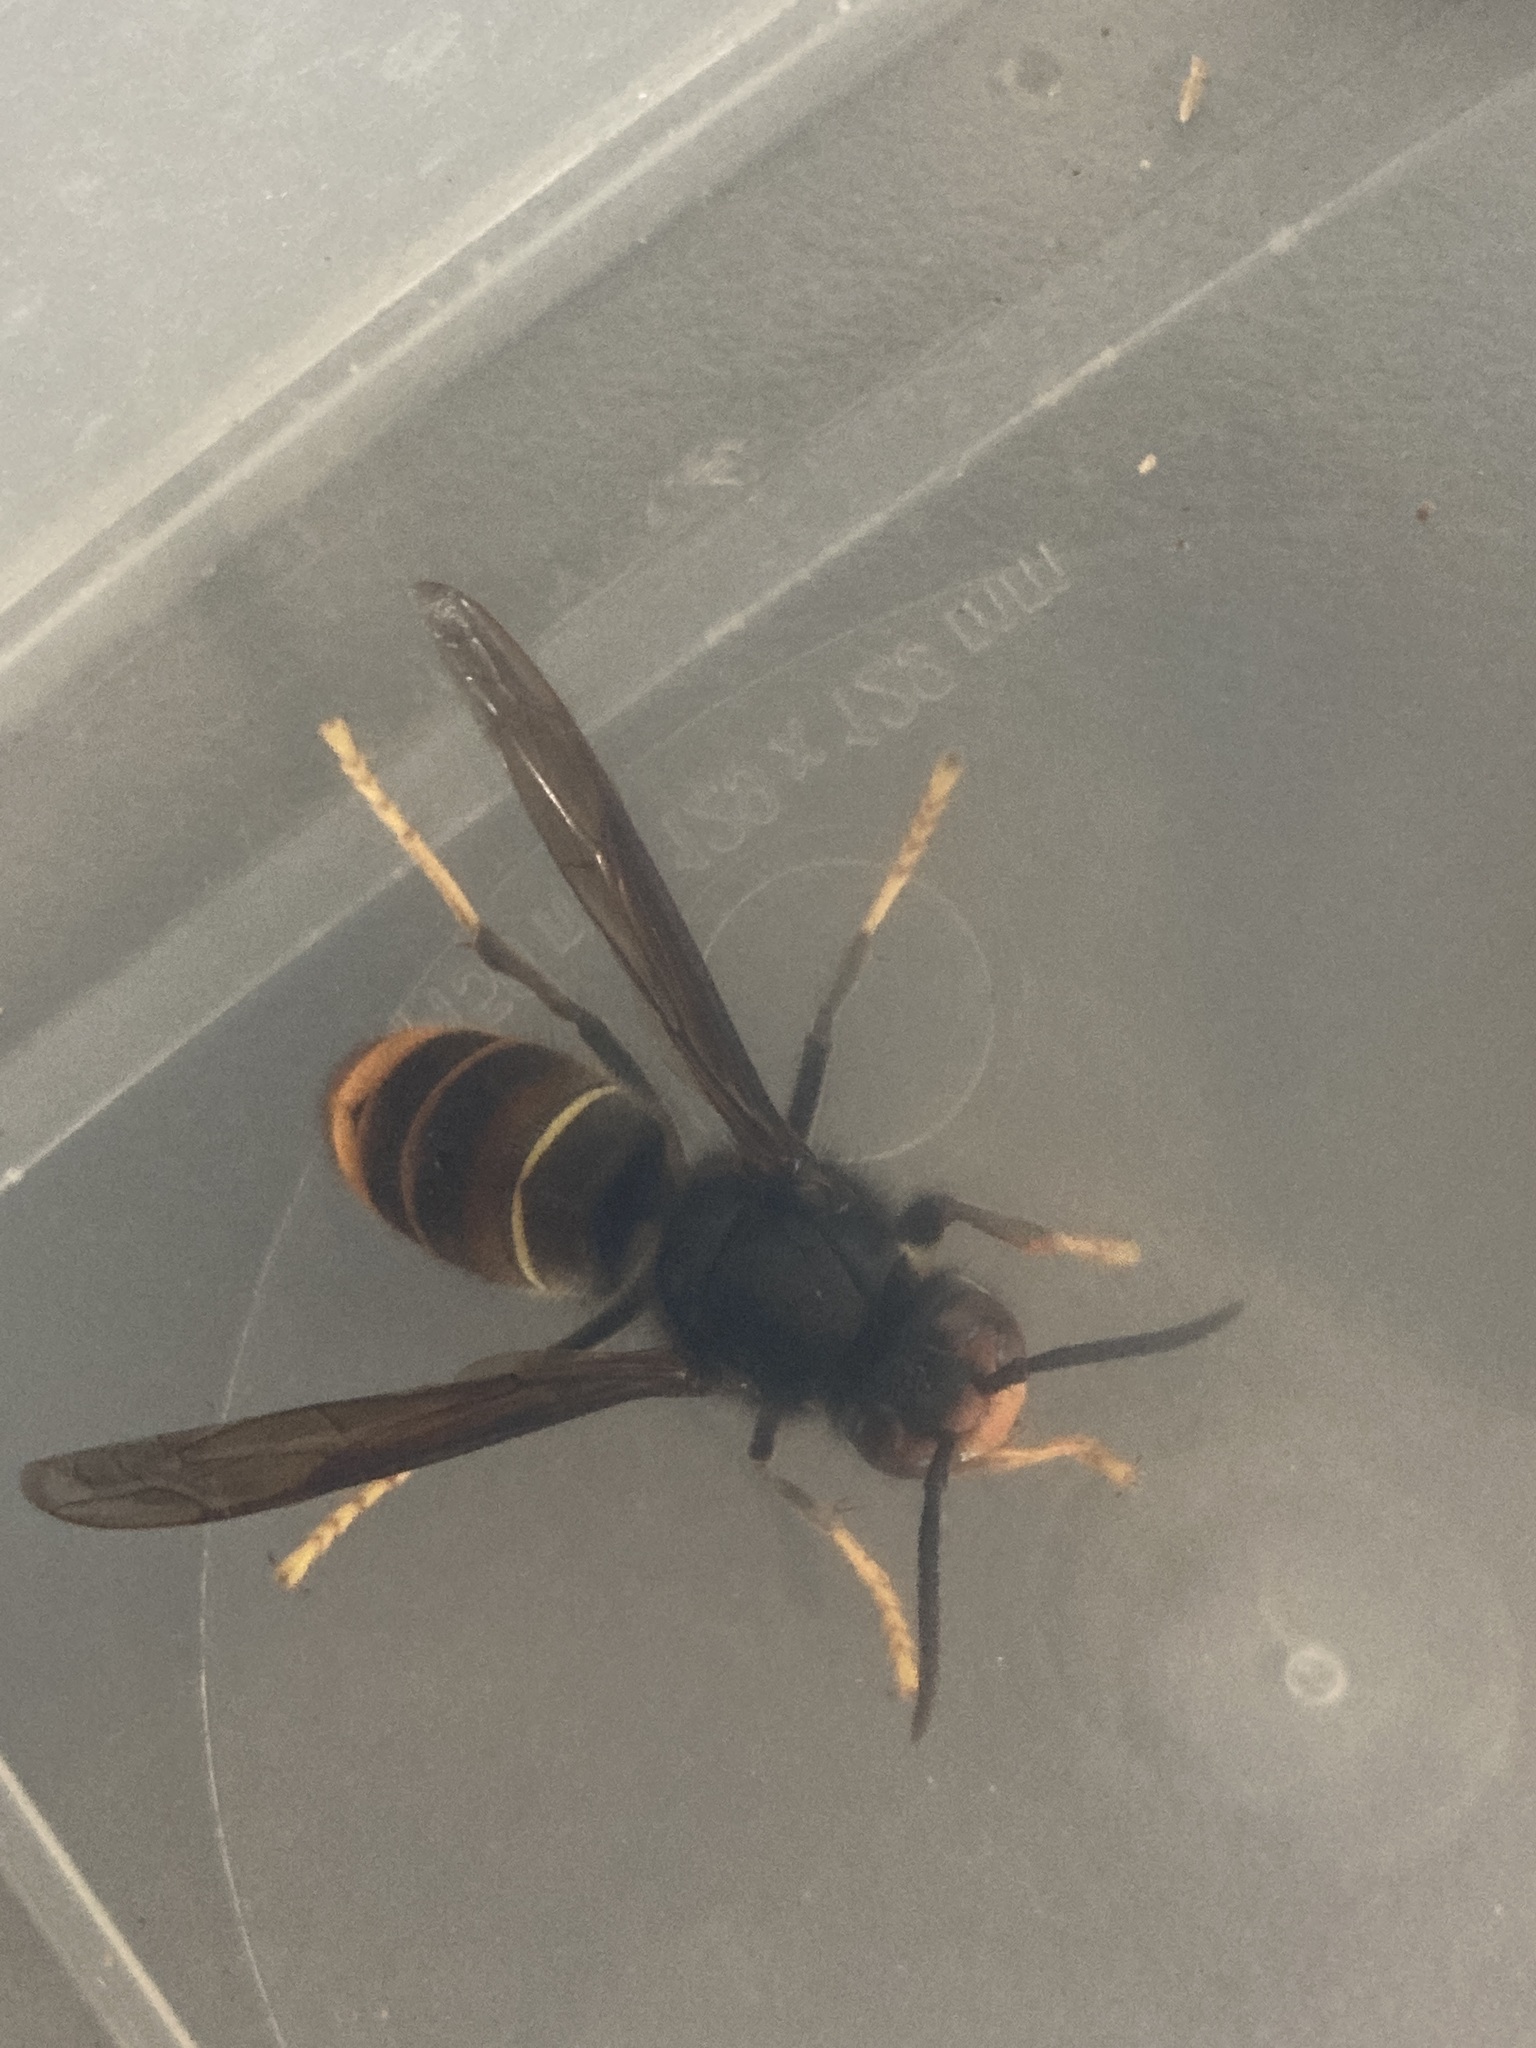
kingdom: Animalia
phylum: Arthropoda
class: Insecta
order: Hymenoptera
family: Vespidae
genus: Vespa
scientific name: Vespa velutina
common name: Asian hornet
